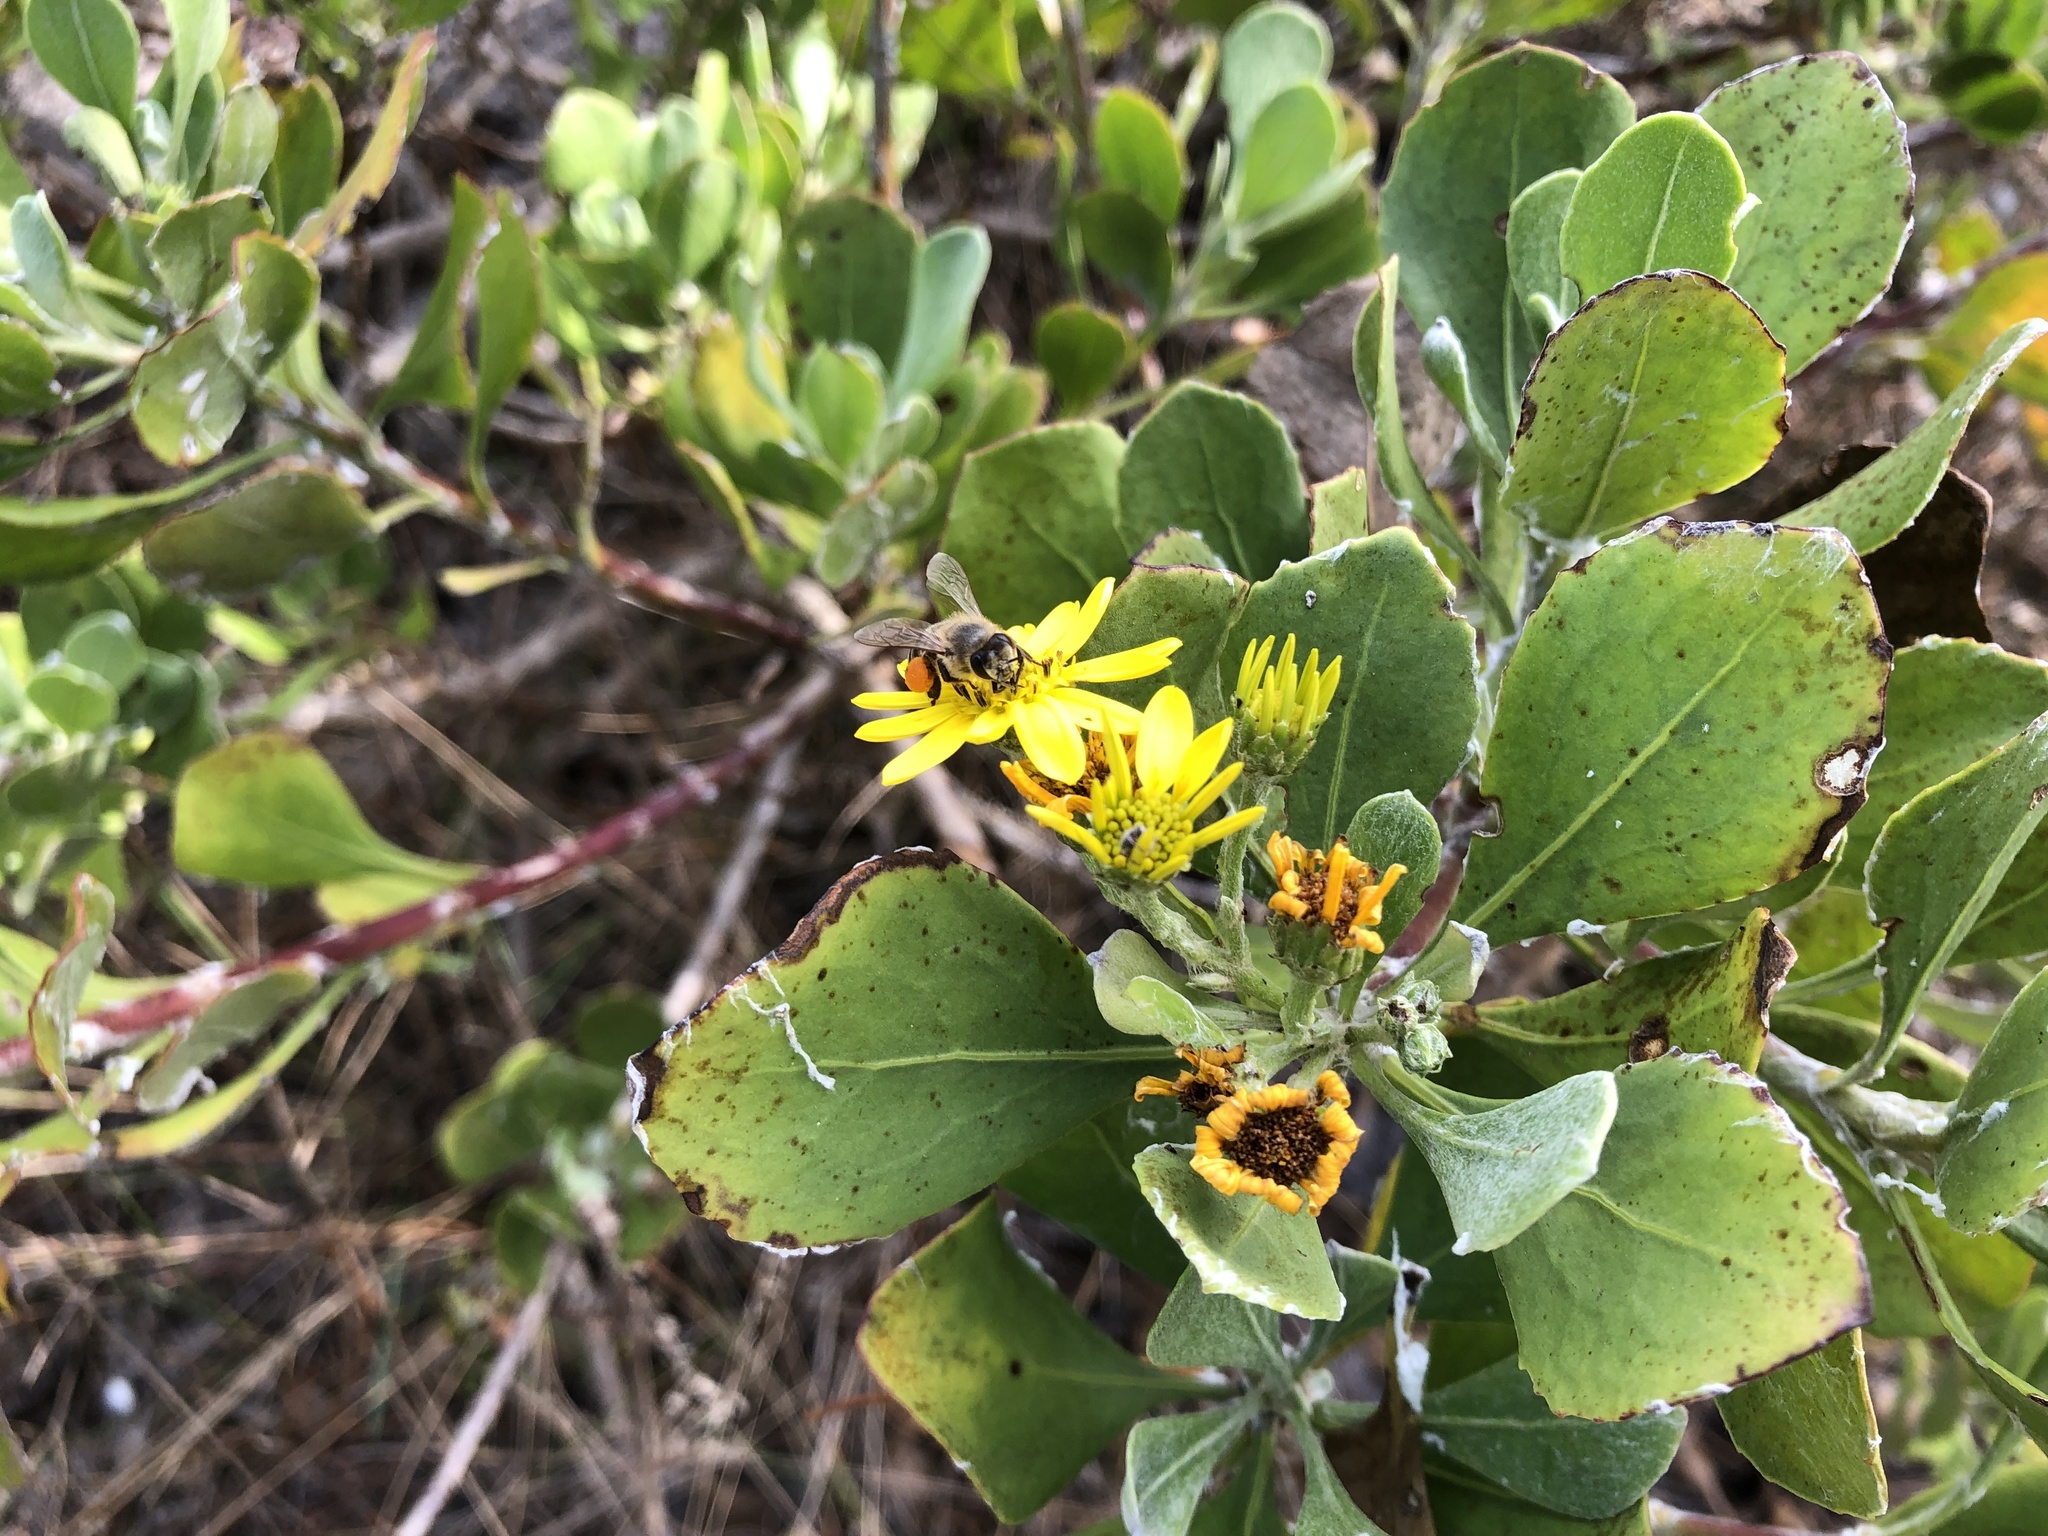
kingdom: Animalia
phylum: Arthropoda
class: Insecta
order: Hymenoptera
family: Apidae
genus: Apis
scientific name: Apis mellifera
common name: Honey bee
